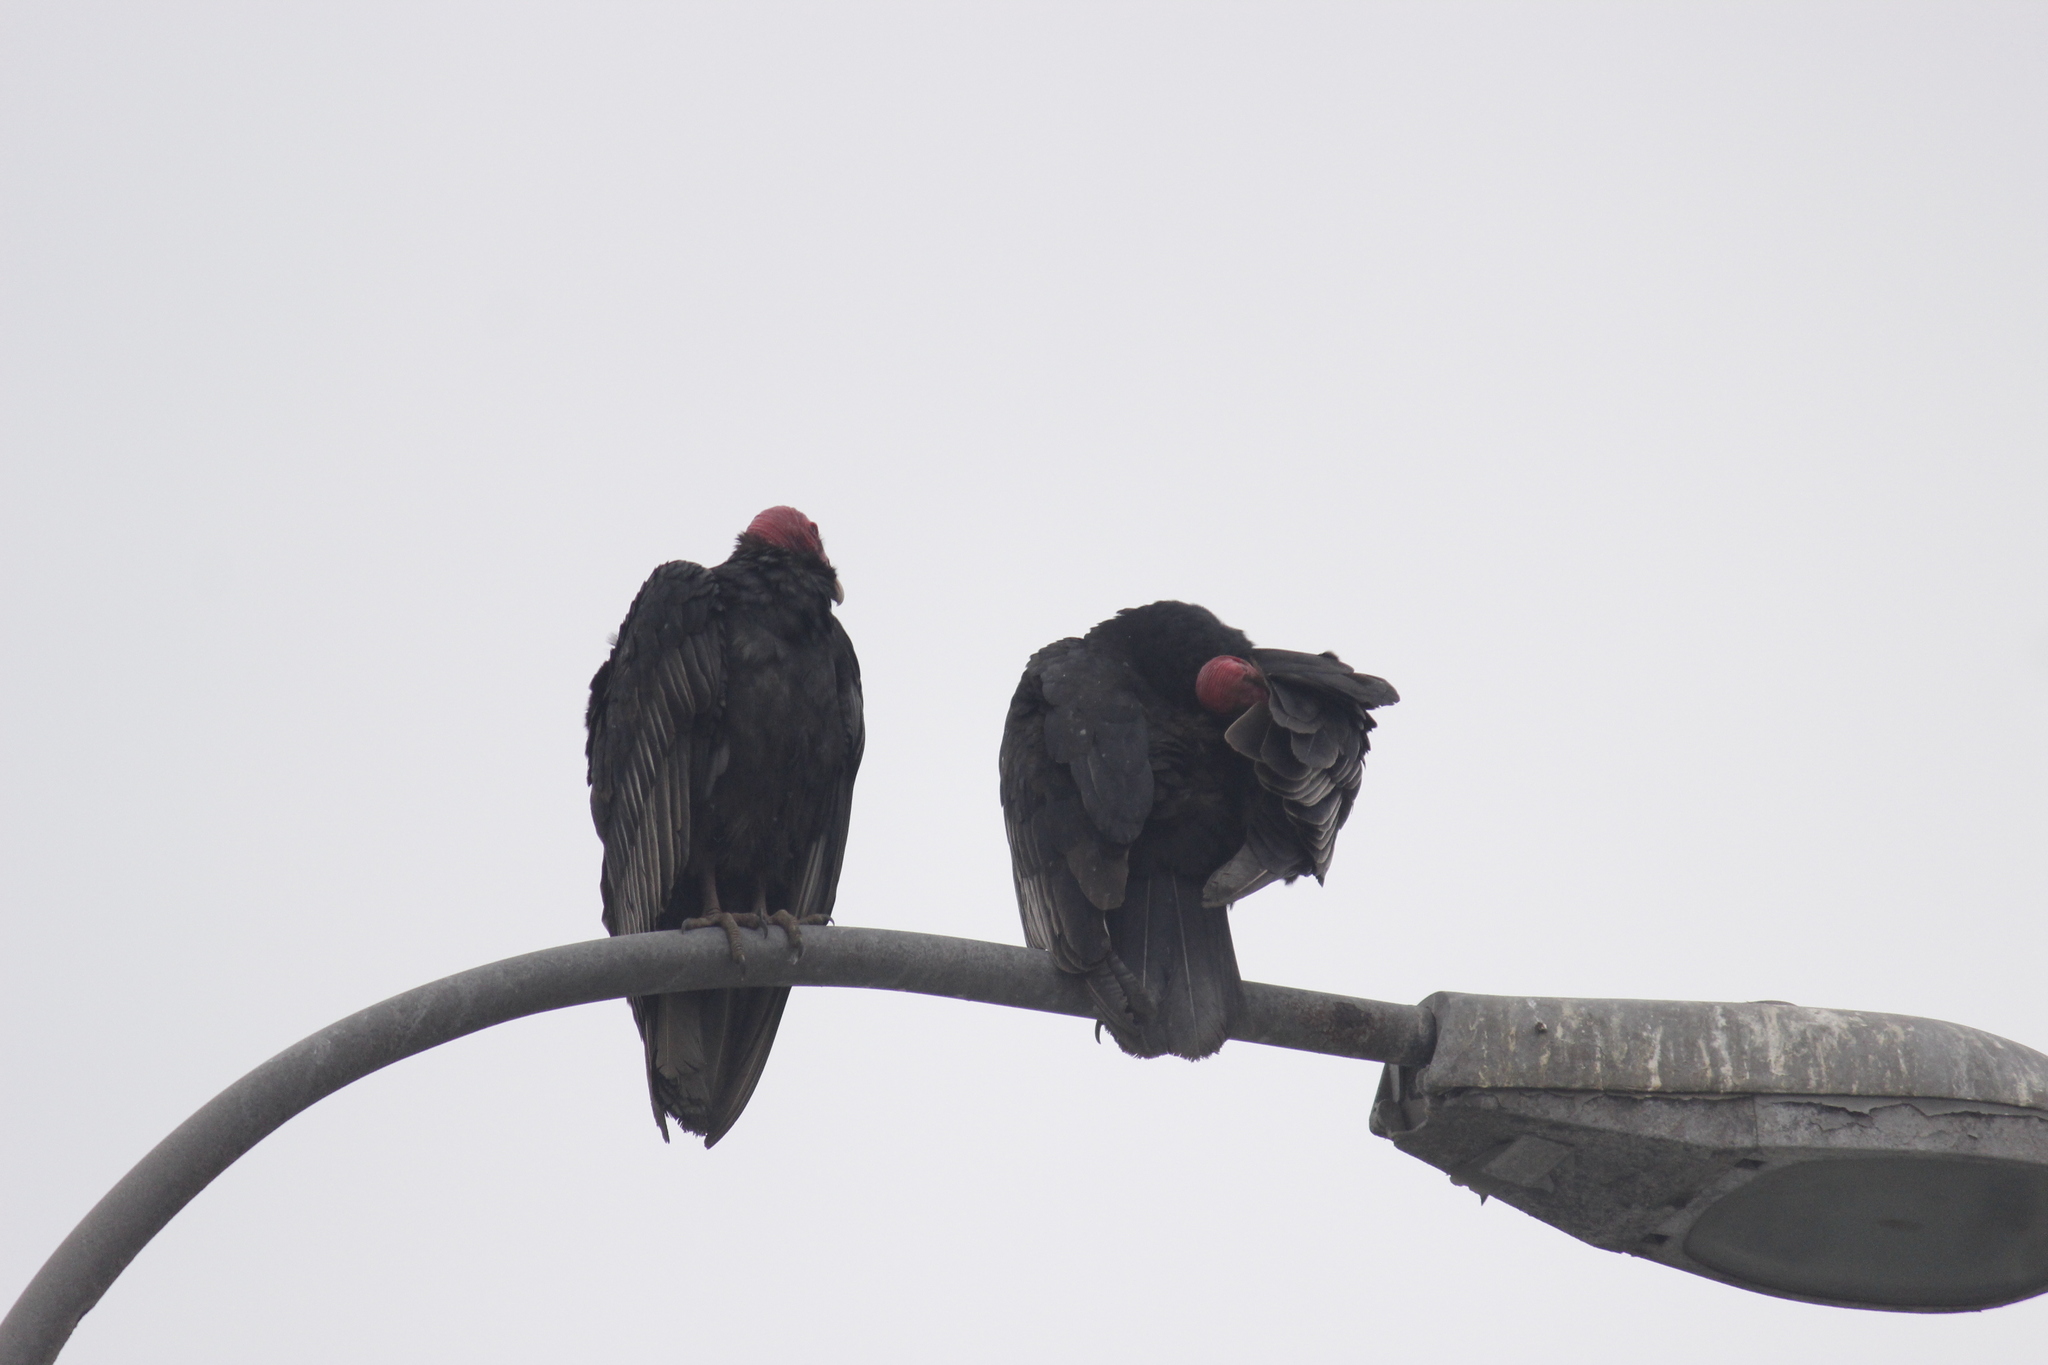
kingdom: Animalia
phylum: Chordata
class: Aves
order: Accipitriformes
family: Cathartidae
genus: Cathartes
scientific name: Cathartes aura
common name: Turkey vulture
